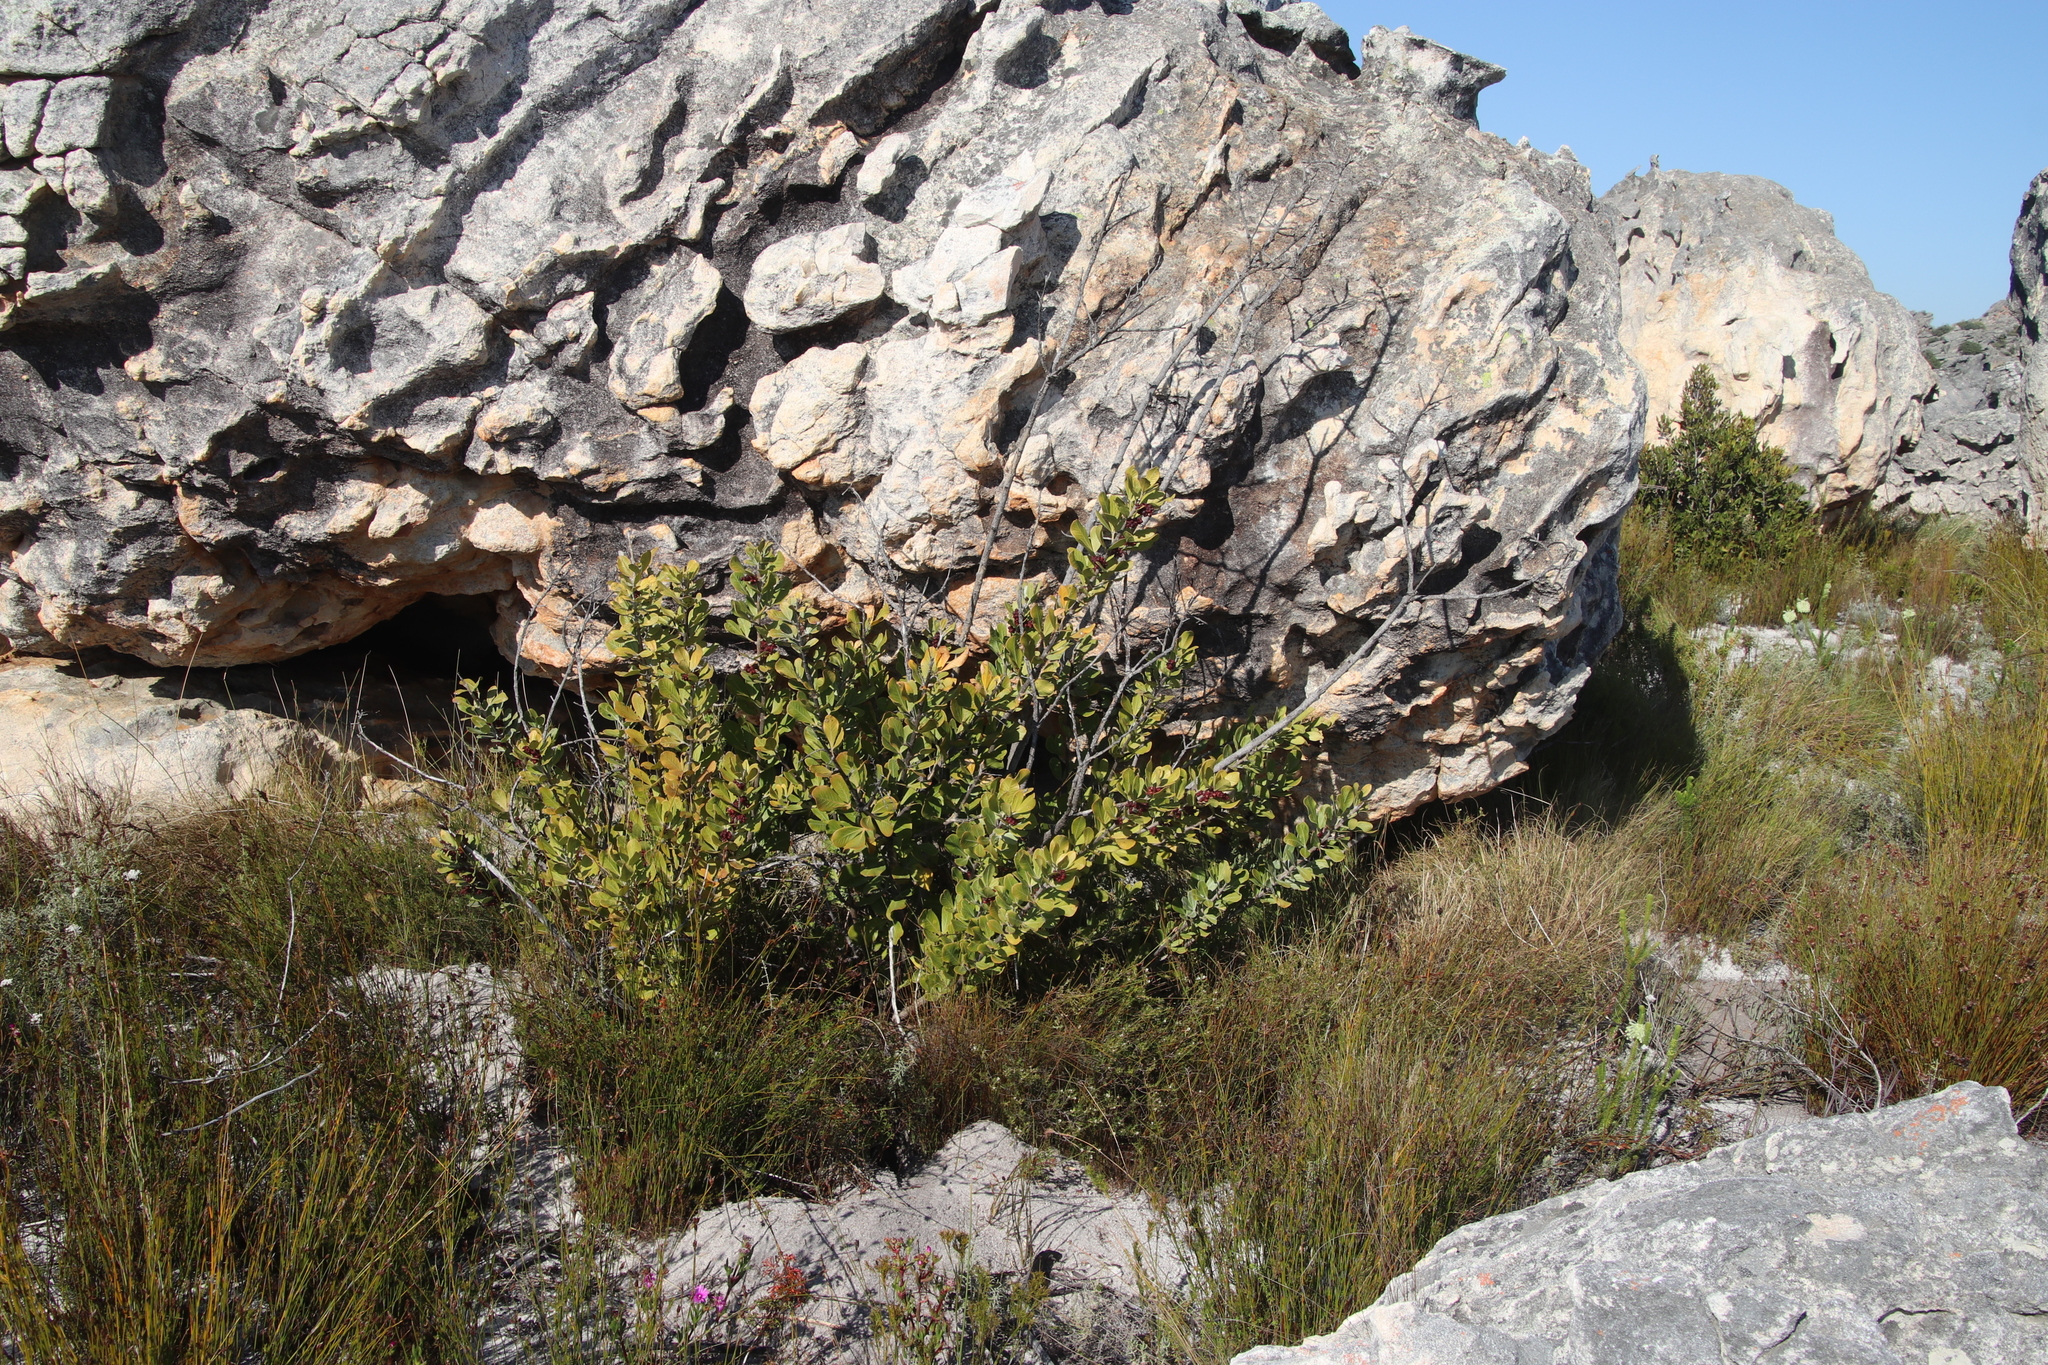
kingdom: Plantae
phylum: Tracheophyta
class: Magnoliopsida
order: Sapindales
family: Anacardiaceae
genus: Searsia
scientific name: Searsia scytophylla
